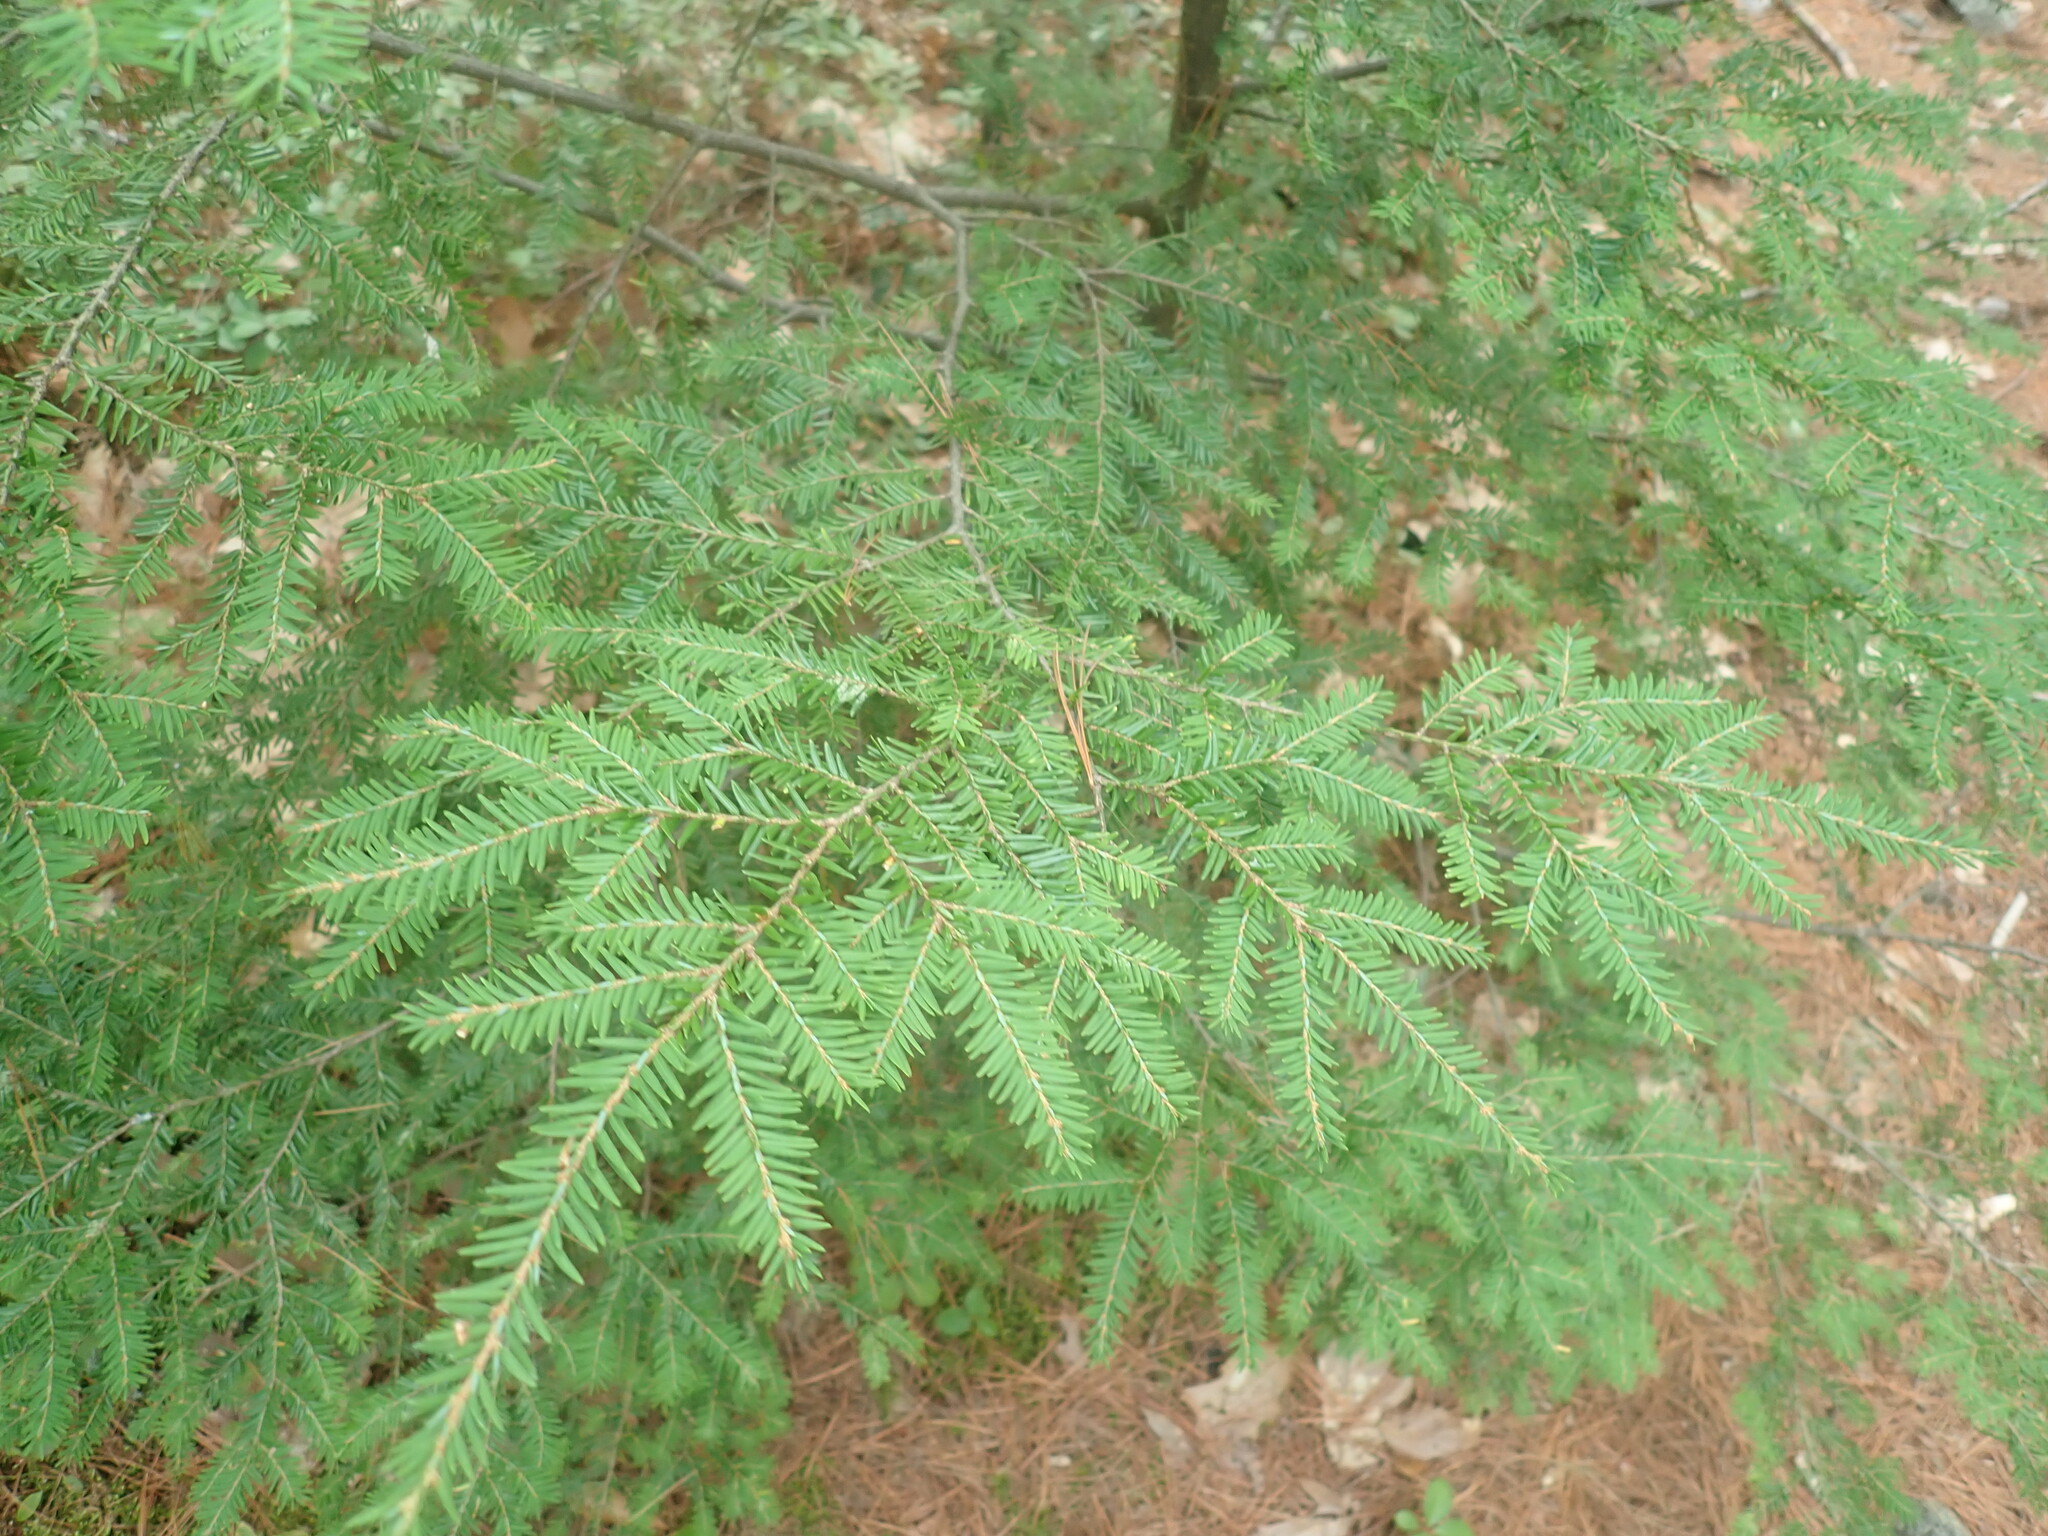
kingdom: Plantae
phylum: Tracheophyta
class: Pinopsida
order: Pinales
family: Pinaceae
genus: Tsuga
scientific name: Tsuga canadensis
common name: Eastern hemlock
